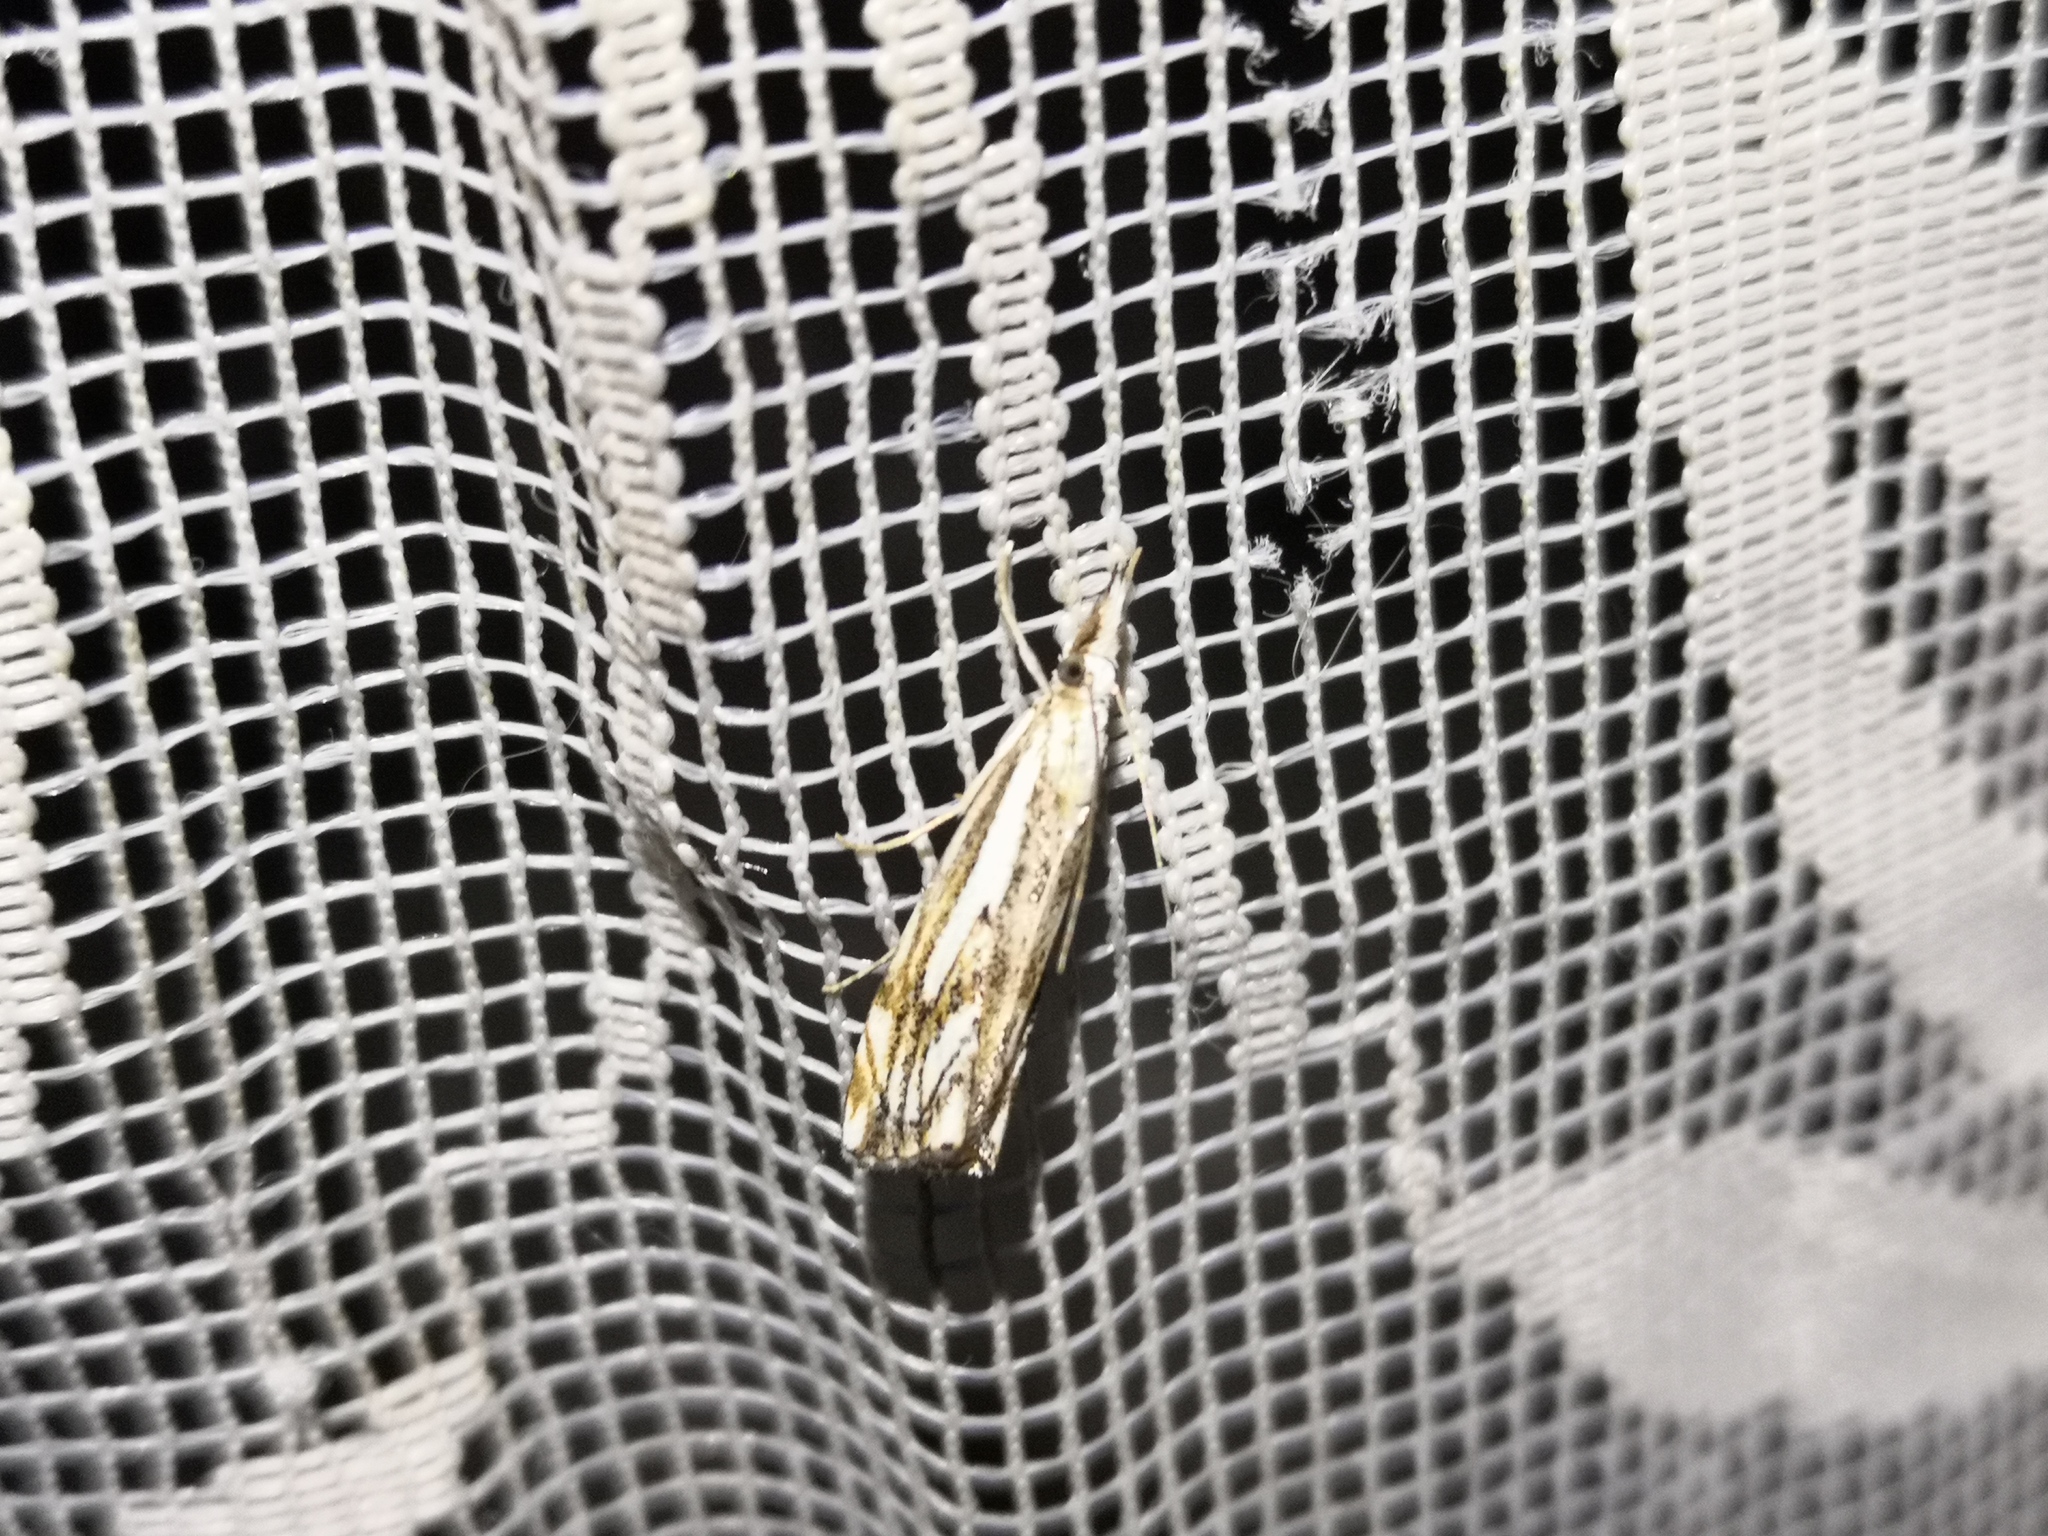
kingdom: Animalia
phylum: Arthropoda
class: Insecta
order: Lepidoptera
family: Crambidae
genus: Catoptria
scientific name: Catoptria falsella
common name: Chequered grass-veneer
